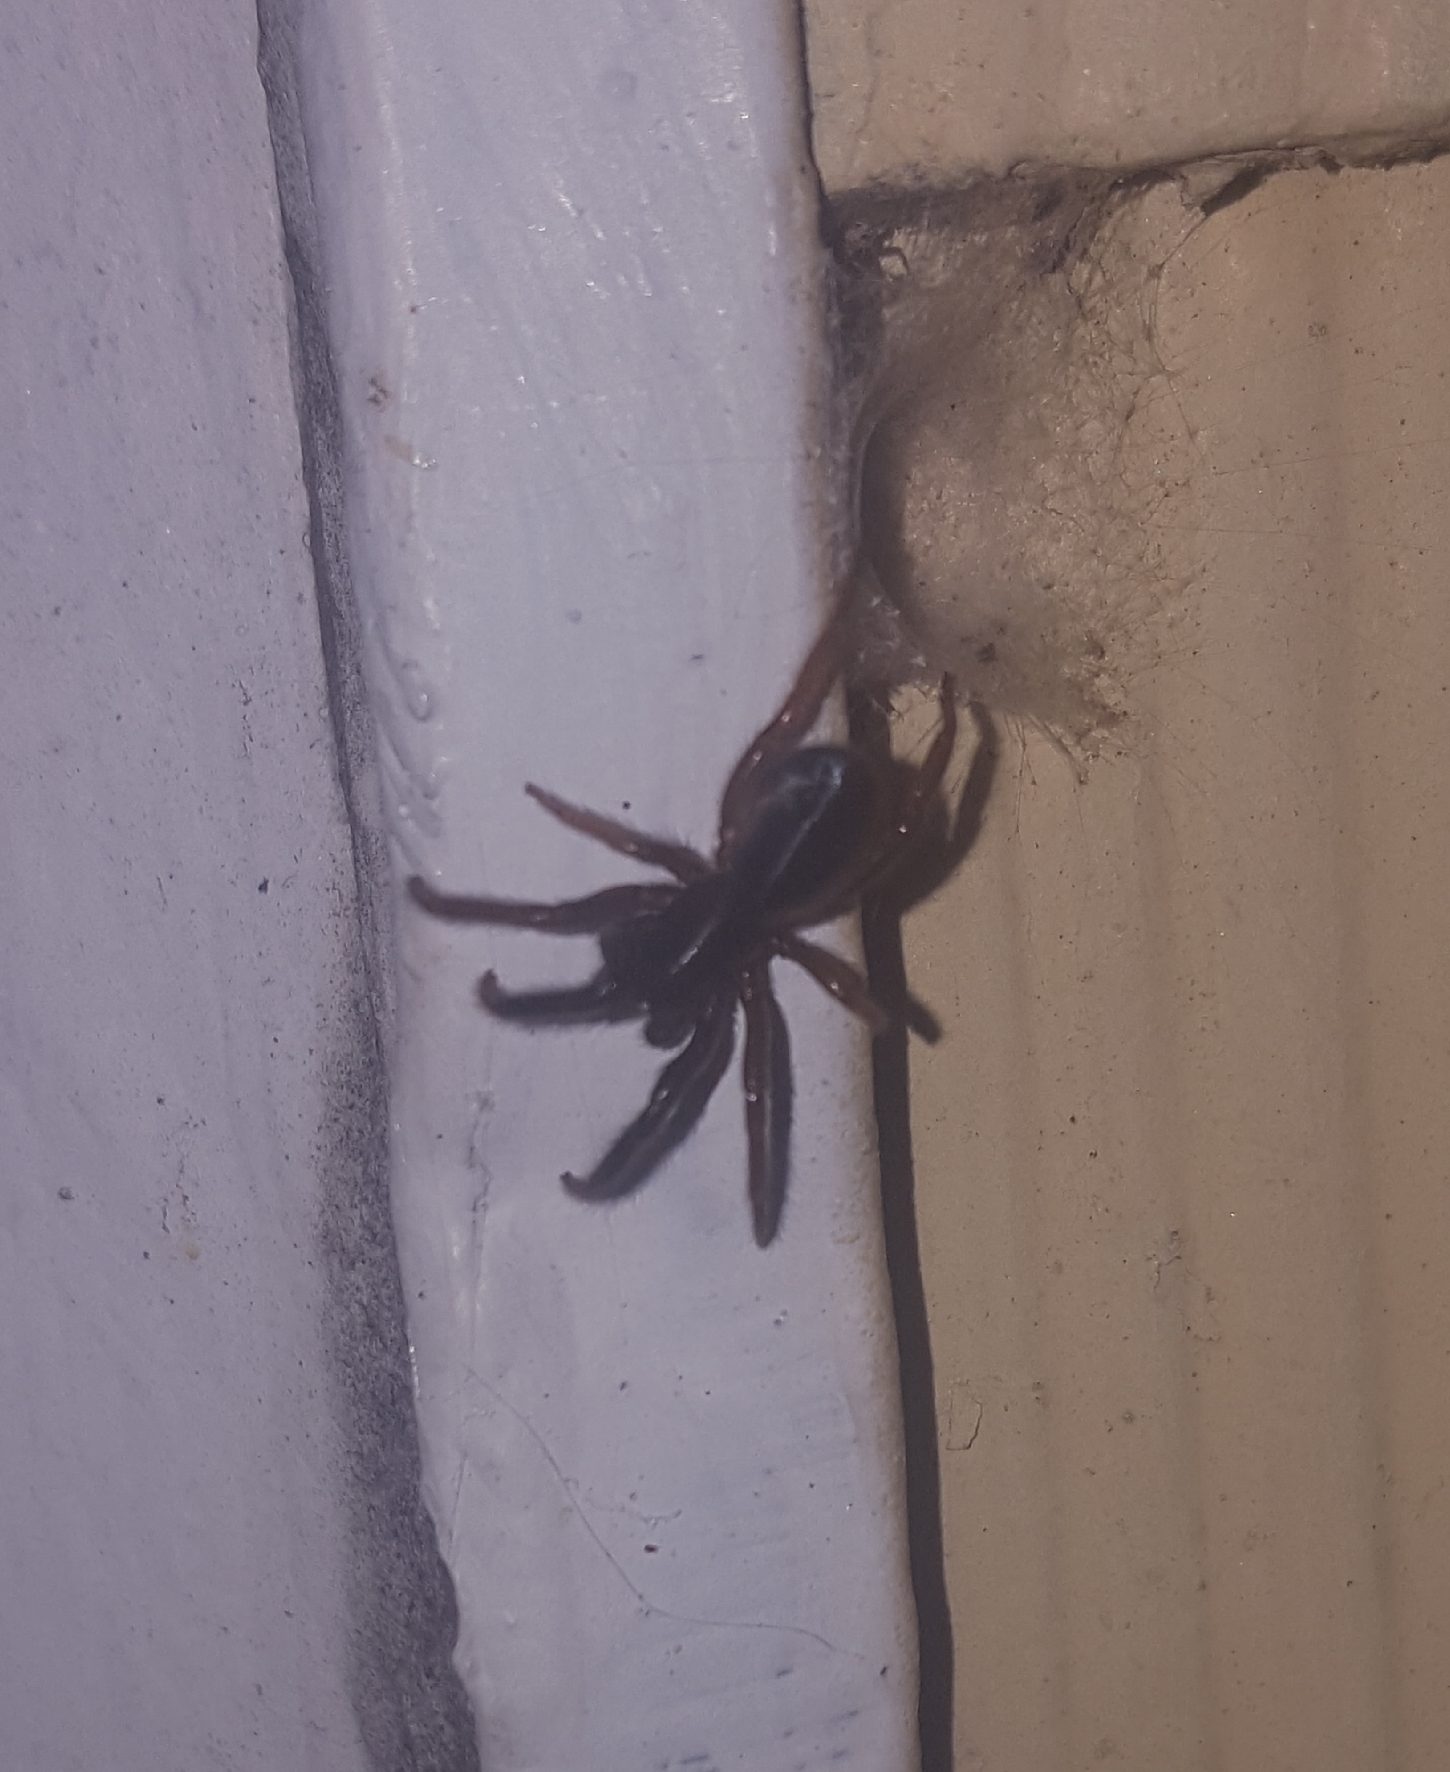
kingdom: Animalia
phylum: Arthropoda
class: Arachnida
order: Araneae
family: Segestriidae
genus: Ariadna
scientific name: Ariadna bicolor
